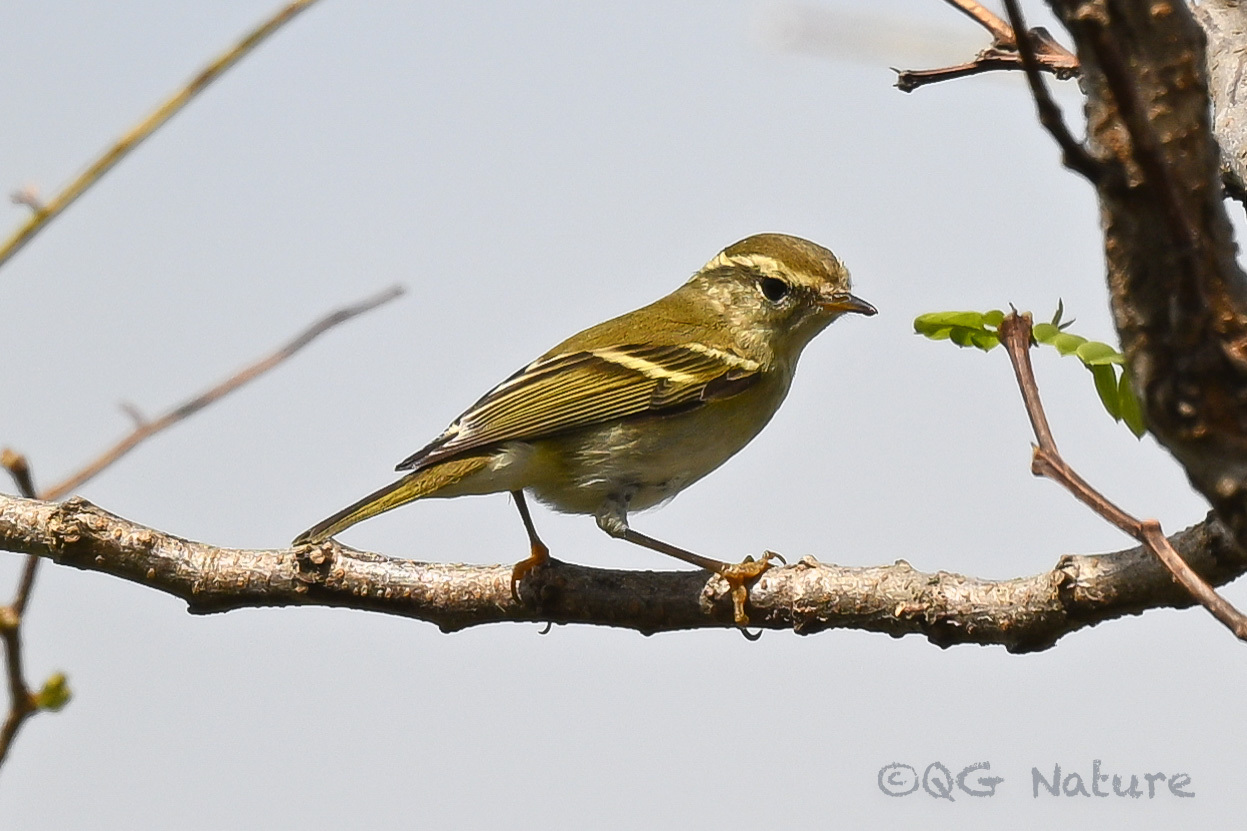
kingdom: Animalia
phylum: Chordata
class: Aves
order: Passeriformes
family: Phylloscopidae
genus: Phylloscopus
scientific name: Phylloscopus inornatus
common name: Yellow-browed warbler
